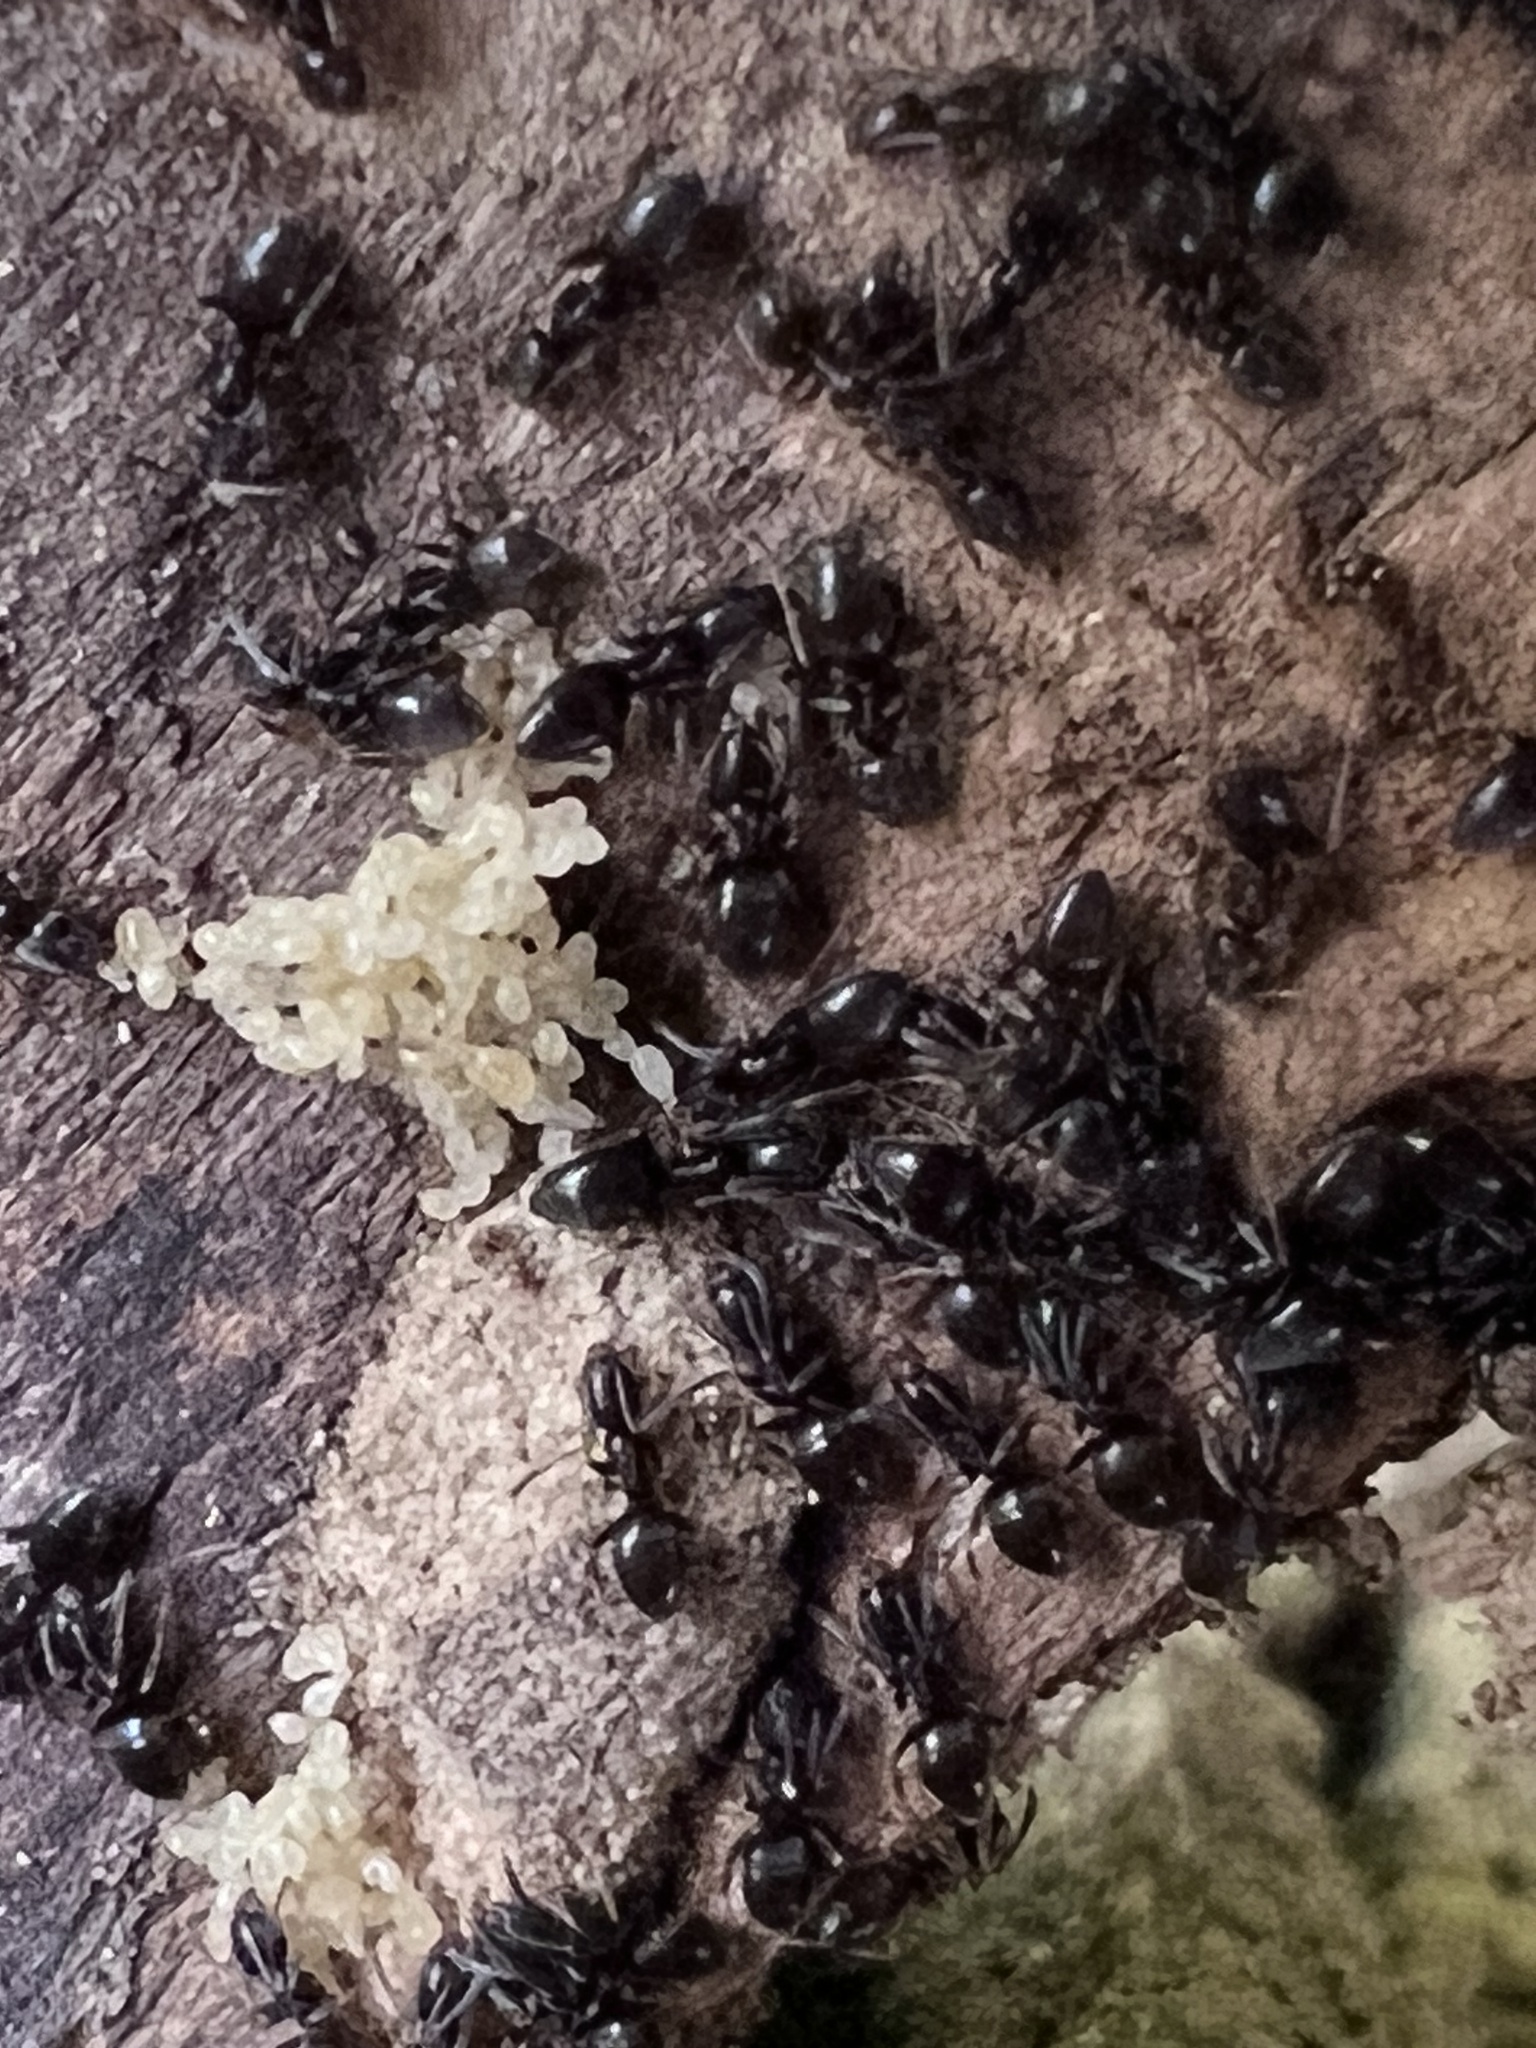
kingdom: Animalia
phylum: Arthropoda
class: Insecta
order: Hymenoptera
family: Formicidae
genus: Tapinoma
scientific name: Tapinoma sessile
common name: Odorous house ant
